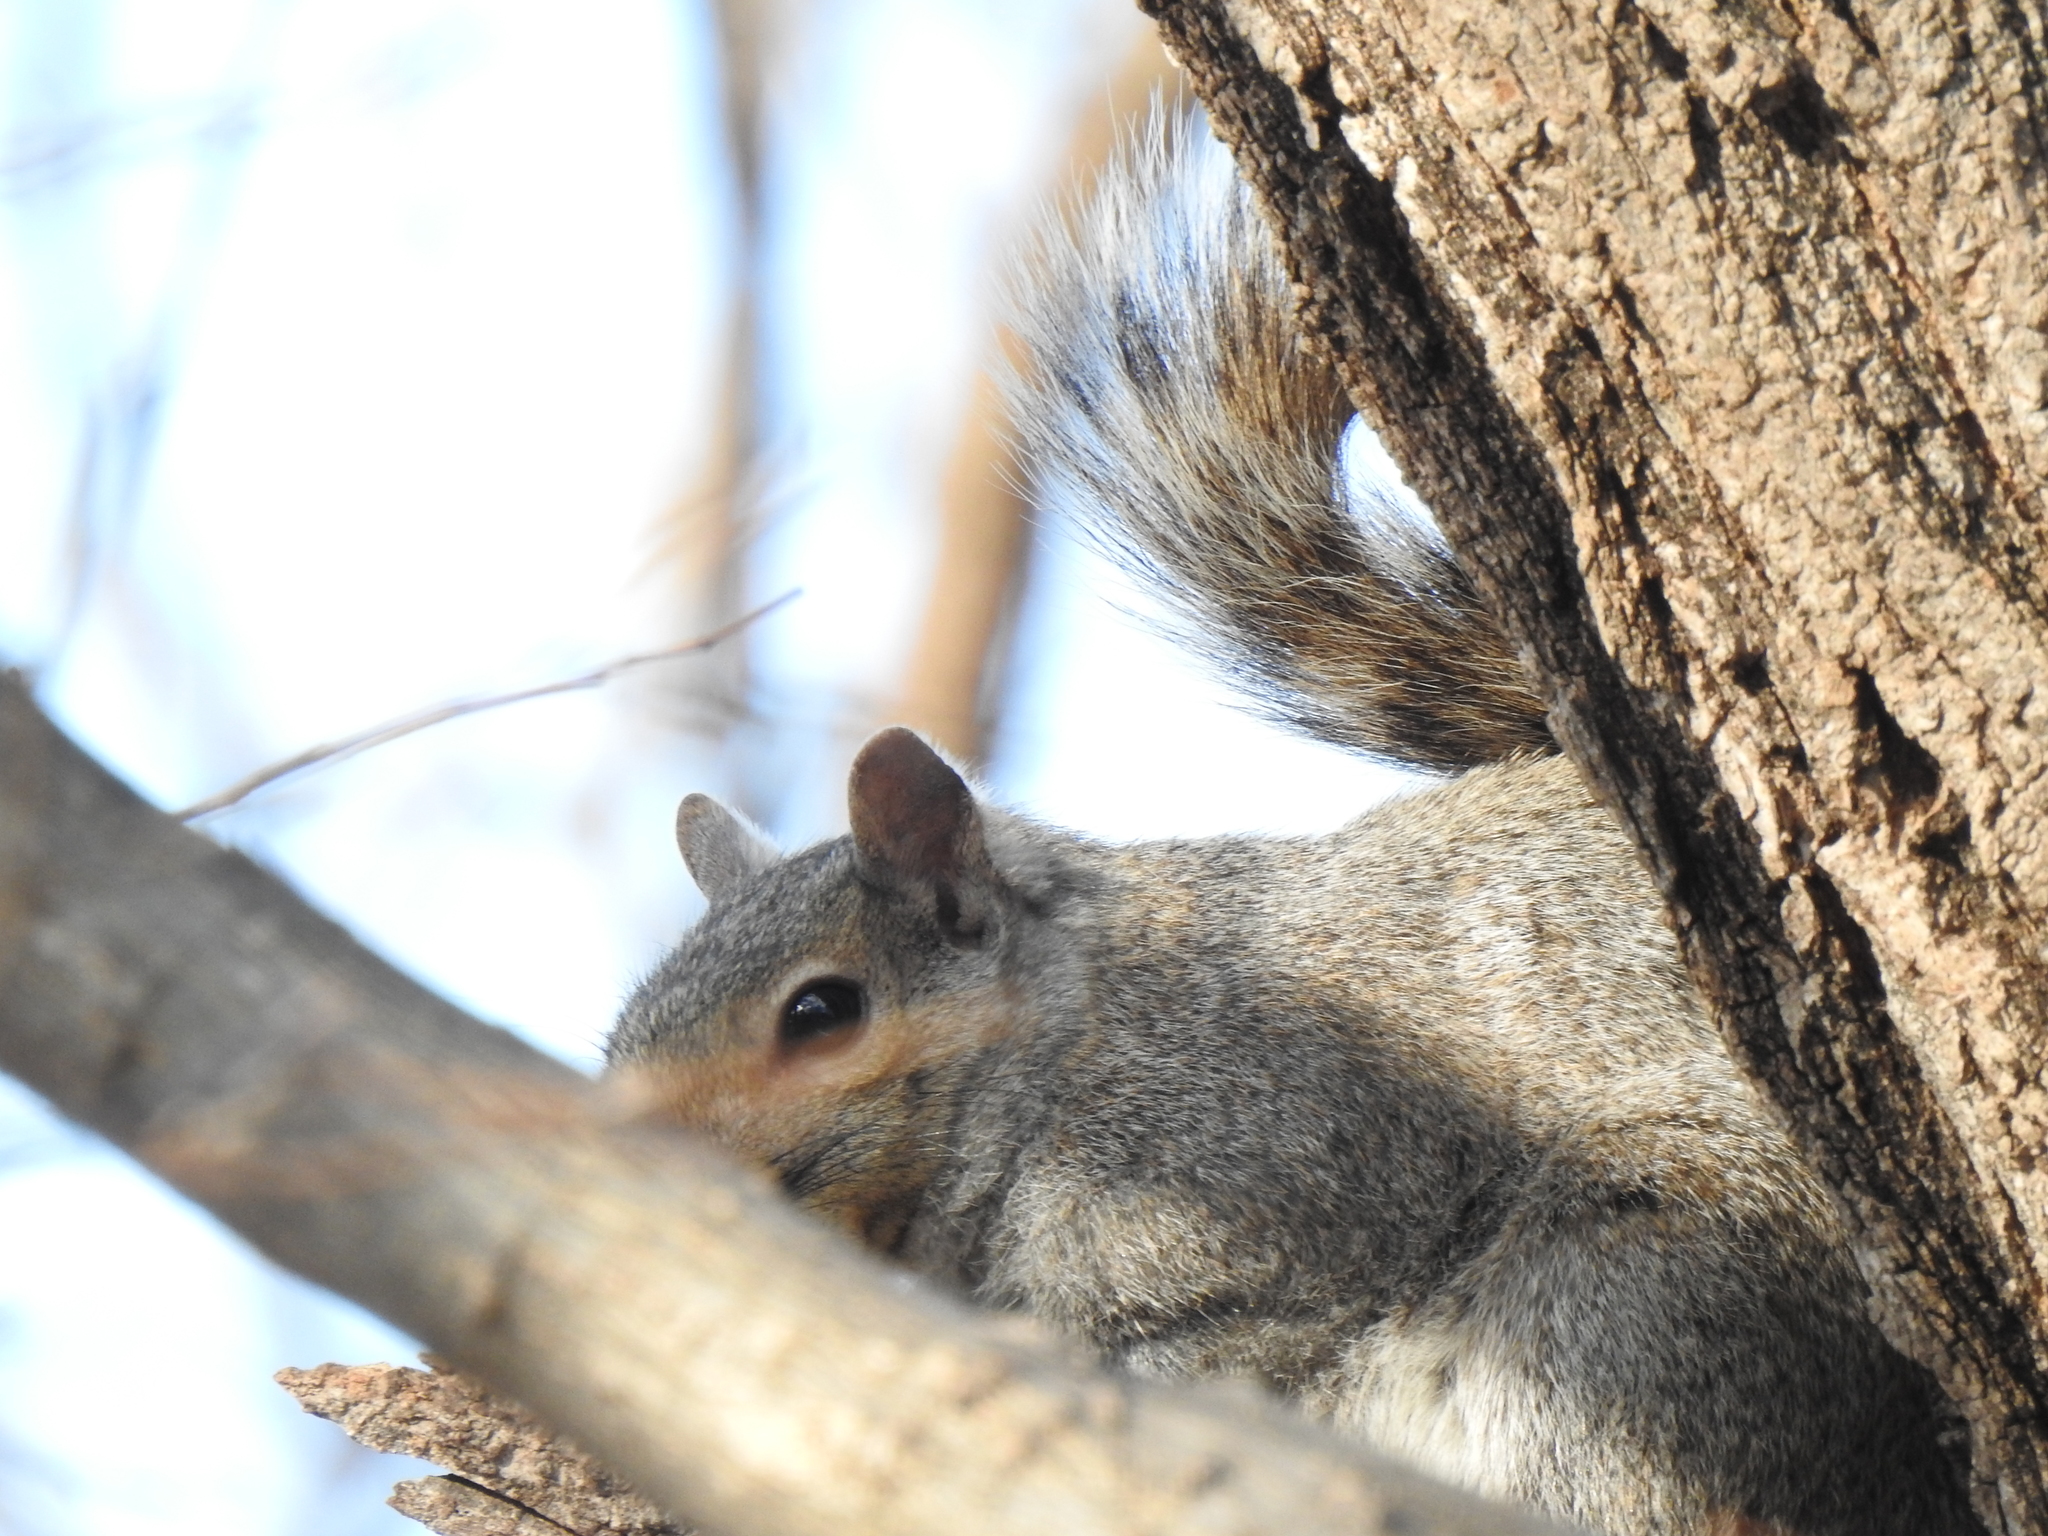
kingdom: Animalia
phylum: Chordata
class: Mammalia
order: Rodentia
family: Sciuridae
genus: Sciurus
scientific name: Sciurus carolinensis
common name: Eastern gray squirrel
